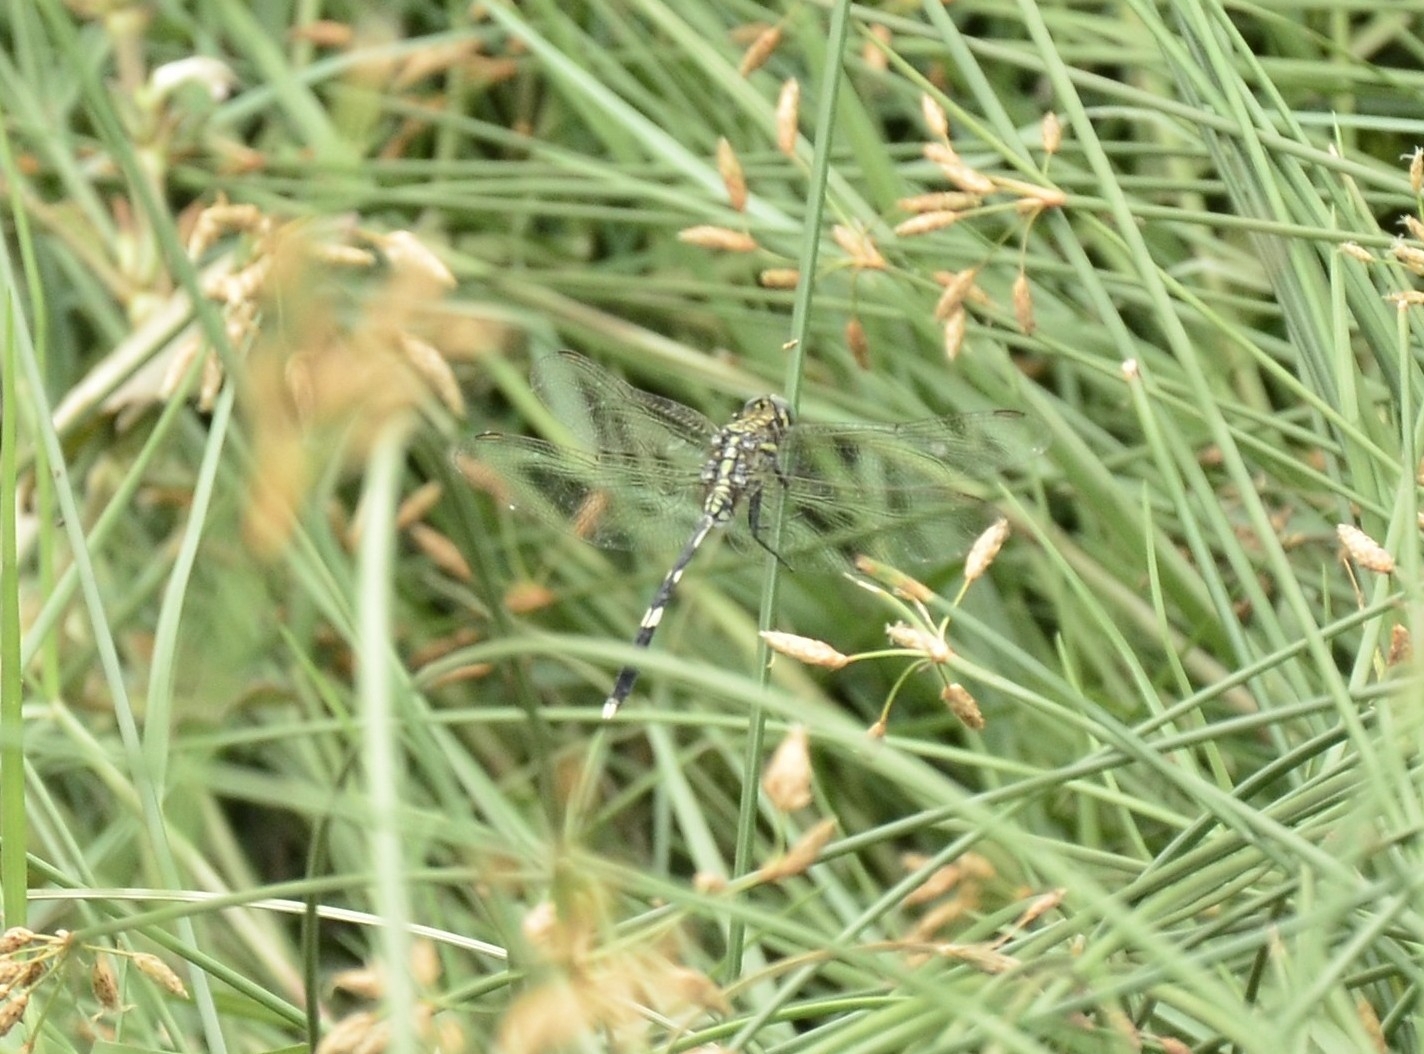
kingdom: Animalia
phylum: Arthropoda
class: Insecta
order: Odonata
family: Libellulidae
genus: Orthetrum
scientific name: Orthetrum sabina
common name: Slender skimmer
